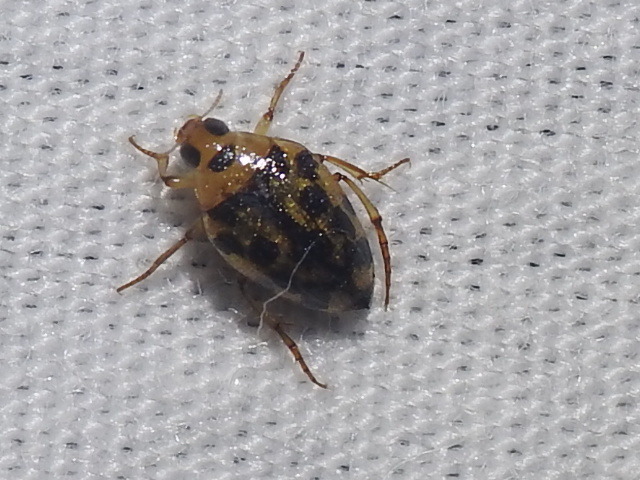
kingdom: Animalia
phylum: Arthropoda
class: Insecta
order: Coleoptera
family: Haliplidae
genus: Haliplus
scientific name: Haliplus
